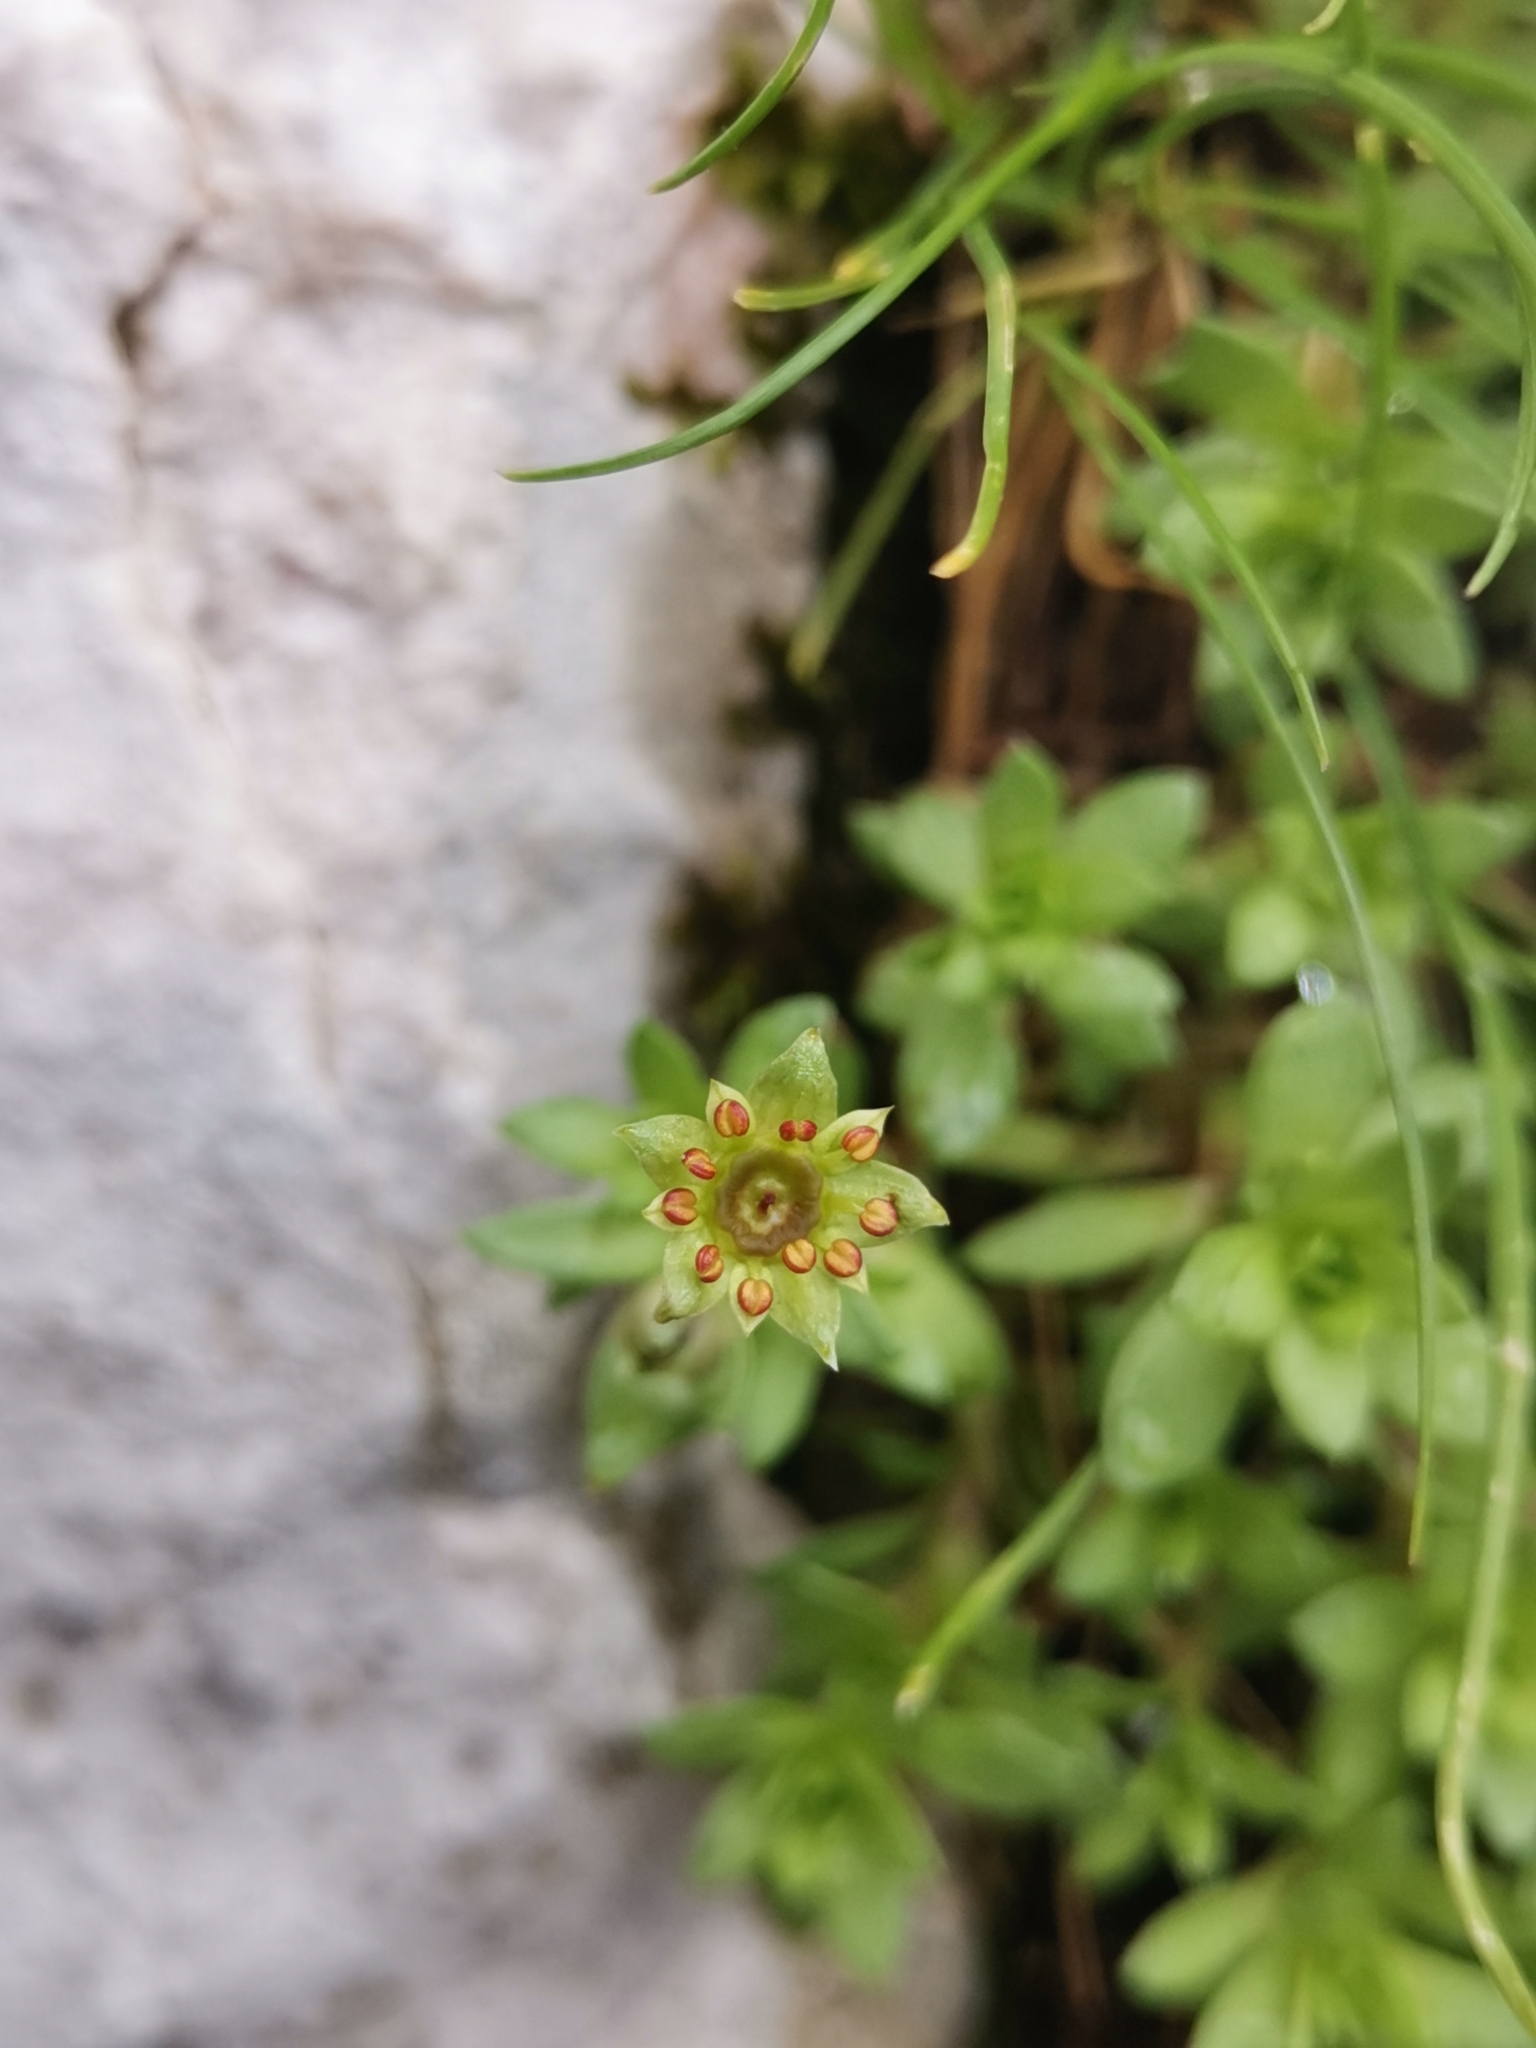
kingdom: Plantae
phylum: Tracheophyta
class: Magnoliopsida
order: Saxifragales
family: Saxifragaceae
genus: Saxifraga
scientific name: Saxifraga sedoides
